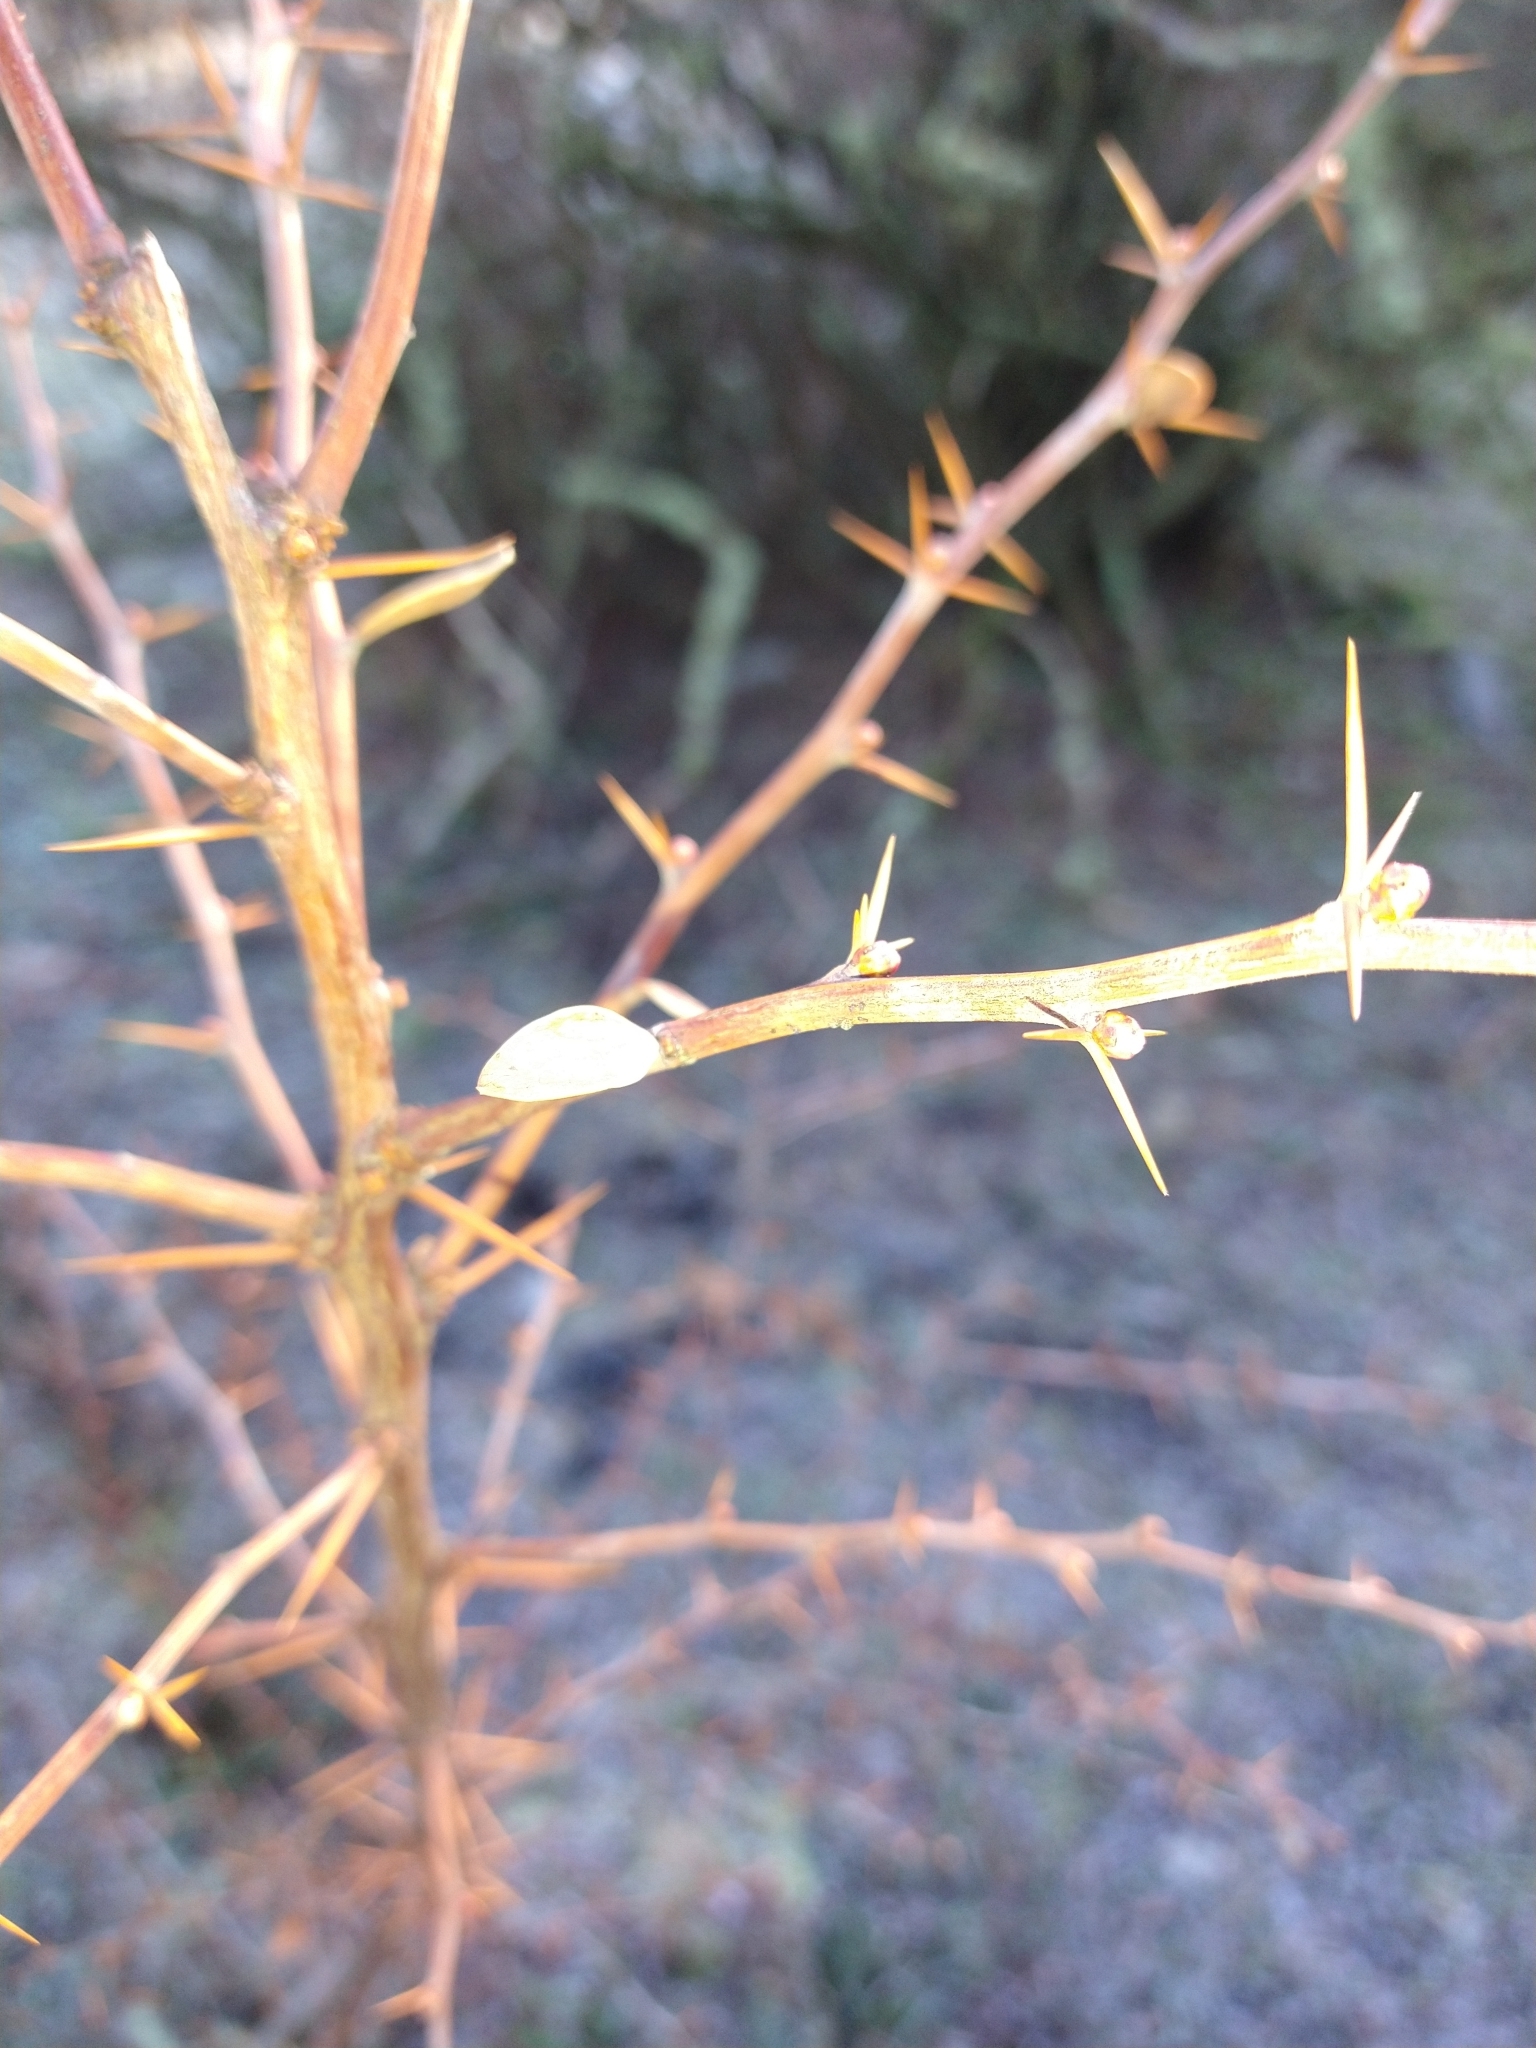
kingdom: Plantae
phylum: Tracheophyta
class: Magnoliopsida
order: Ranunculales
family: Berberidaceae
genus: Berberis
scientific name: Berberis microphylla
